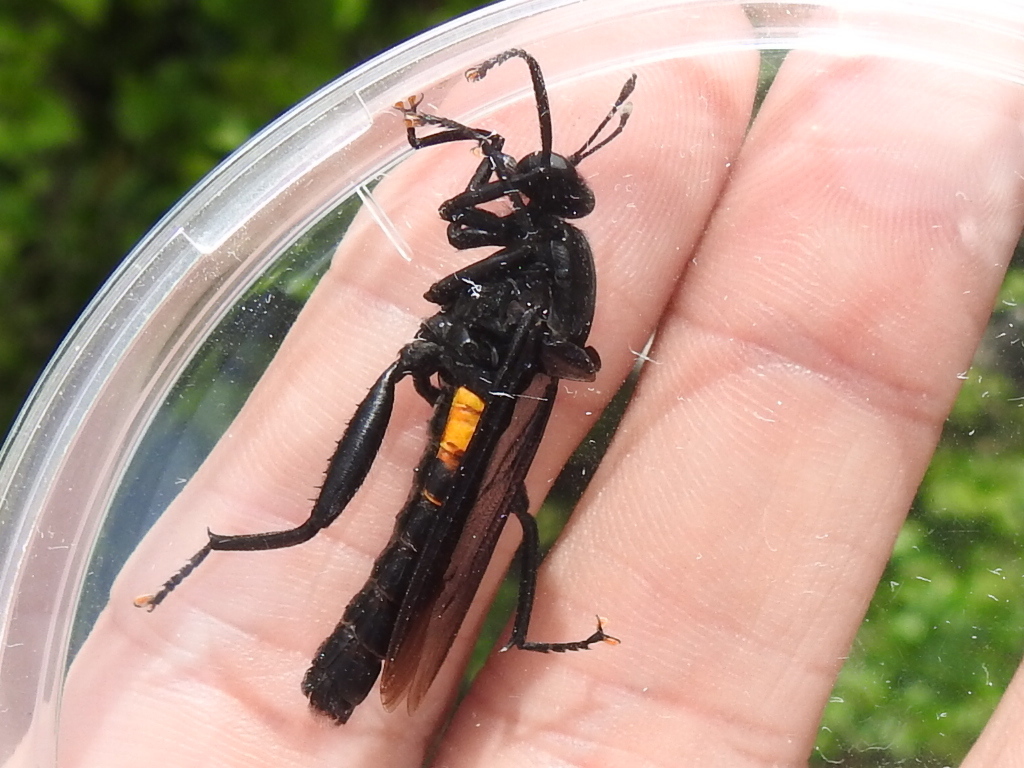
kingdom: Animalia
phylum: Arthropoda
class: Insecta
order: Diptera
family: Mydidae
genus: Mydas
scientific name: Mydas clavatus
